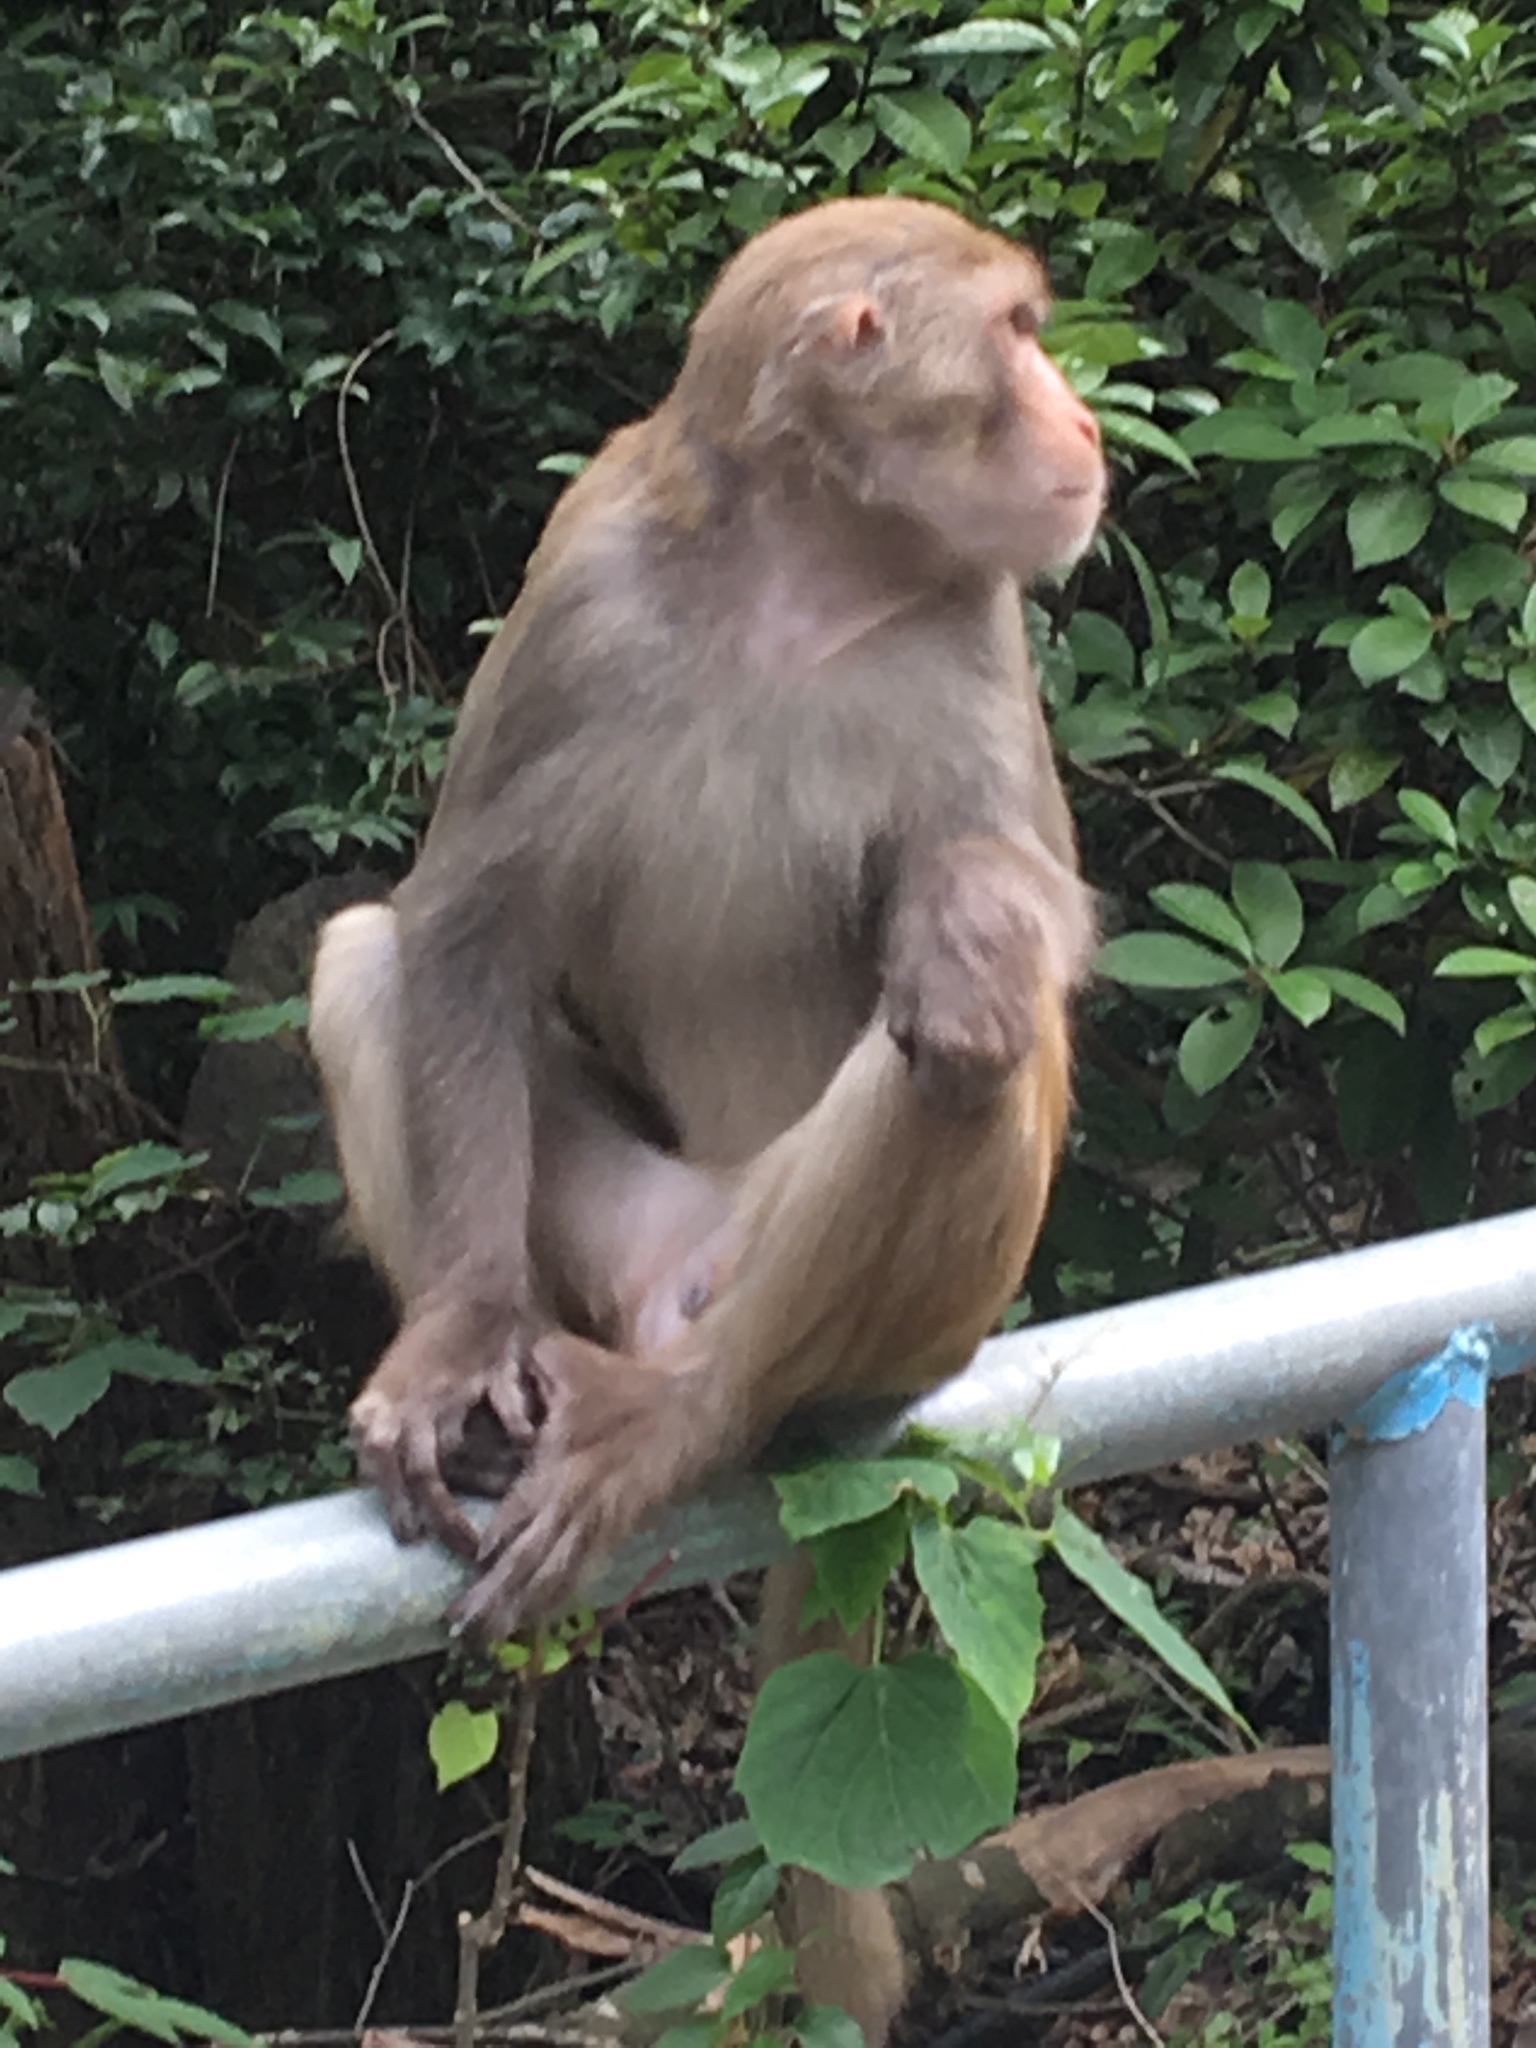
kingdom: Animalia
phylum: Chordata
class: Mammalia
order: Primates
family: Cercopithecidae
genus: Macaca
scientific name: Macaca mulatta
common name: Rhesus monkey
